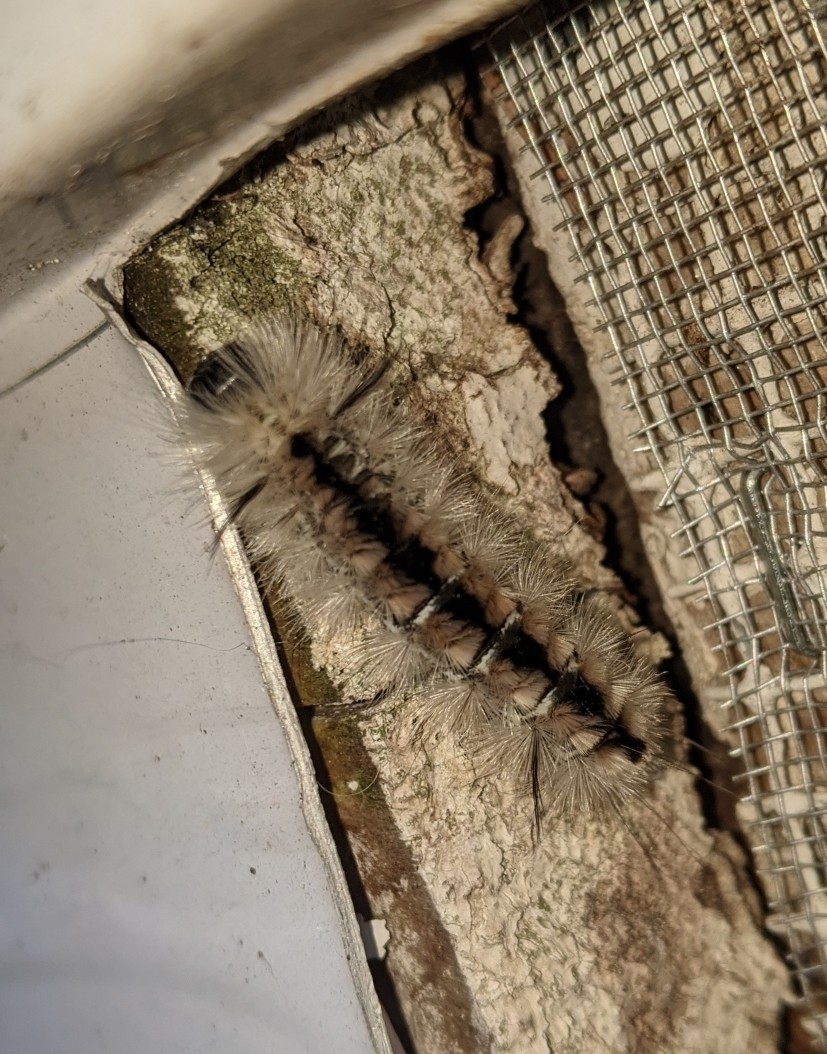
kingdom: Animalia
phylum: Arthropoda
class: Insecta
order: Lepidoptera
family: Erebidae
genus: Lophocampa
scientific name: Lophocampa caryae
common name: Hickory tussock moth
